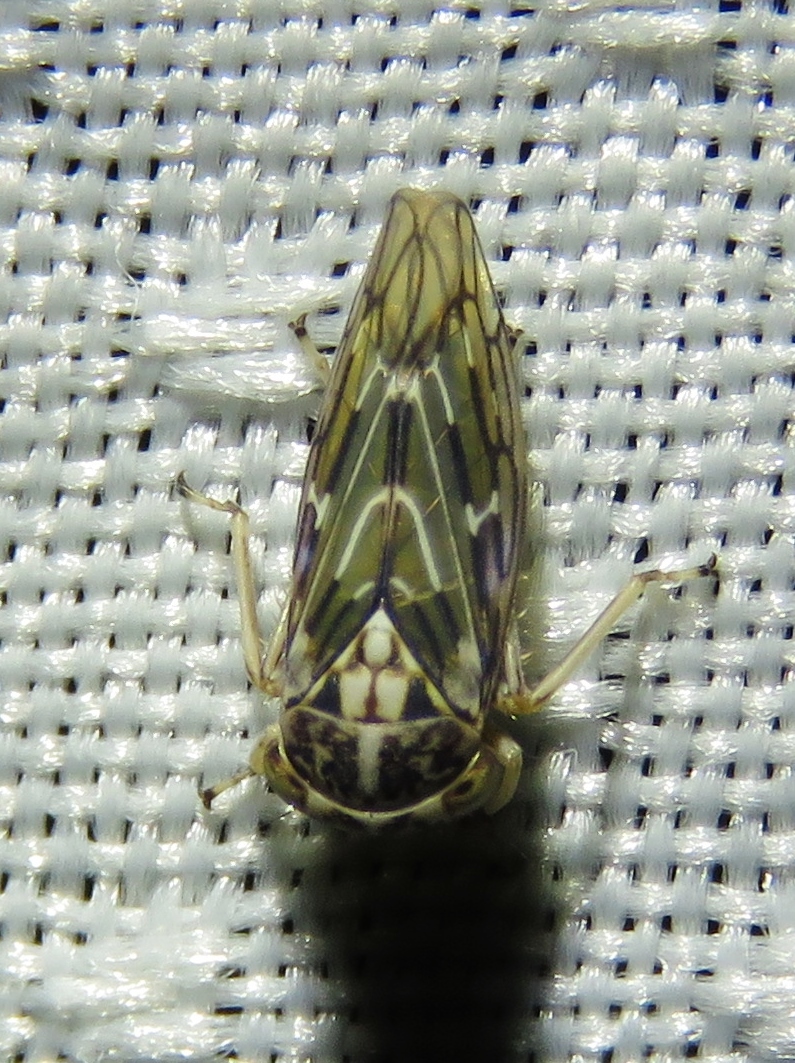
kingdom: Animalia
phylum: Arthropoda
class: Insecta
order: Hemiptera
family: Cicadellidae
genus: Liocratus
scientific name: Liocratus moniliferae
